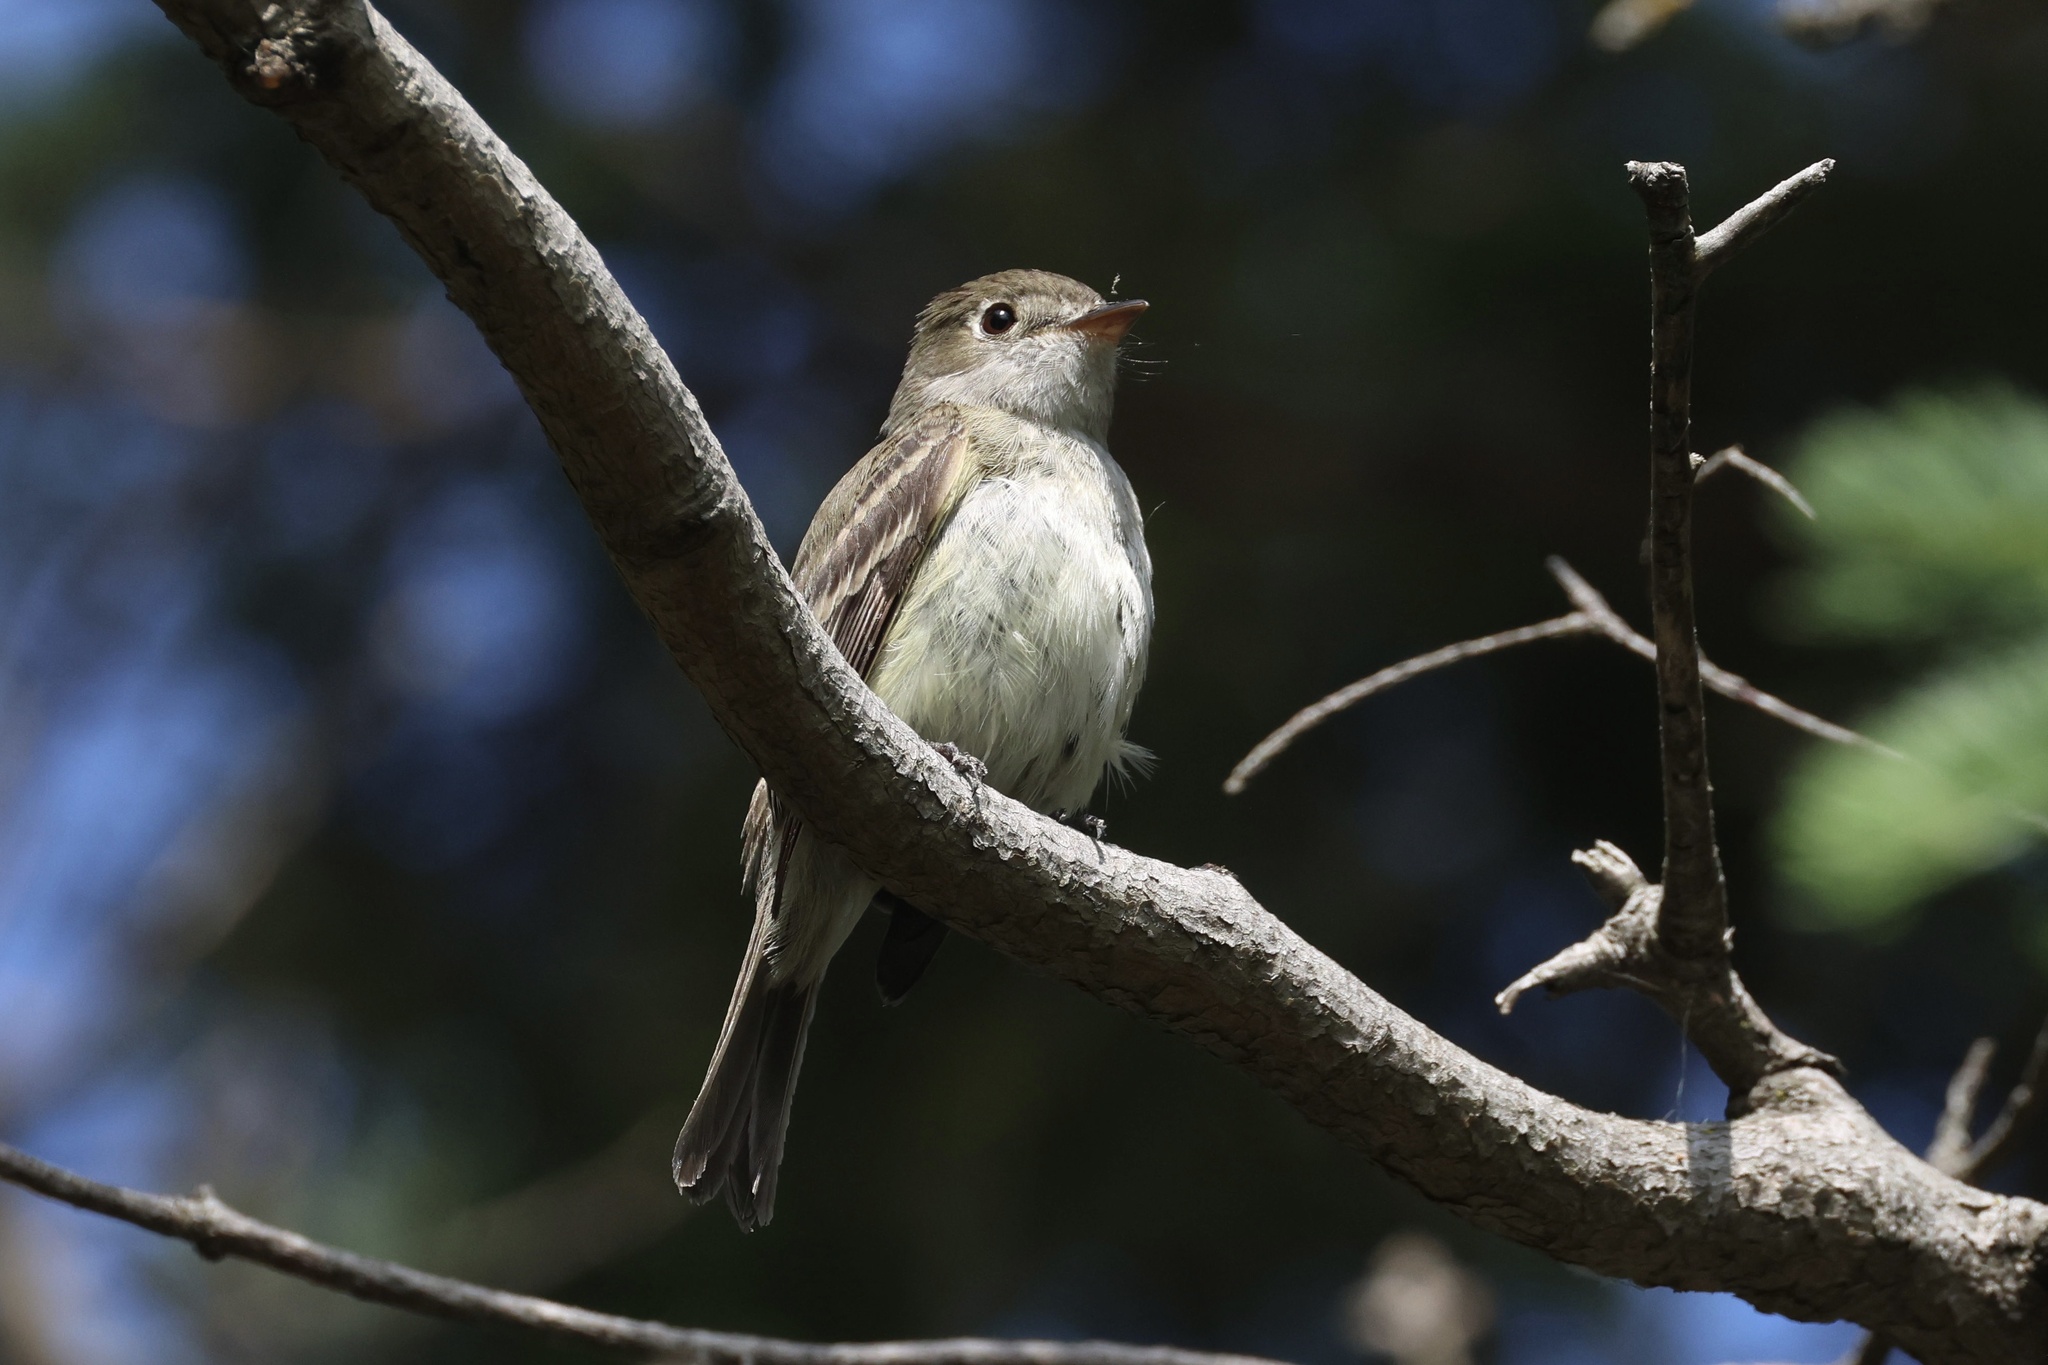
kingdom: Animalia
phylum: Chordata
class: Aves
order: Passeriformes
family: Tyrannidae
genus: Empidonax
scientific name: Empidonax minimus
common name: Least flycatcher
